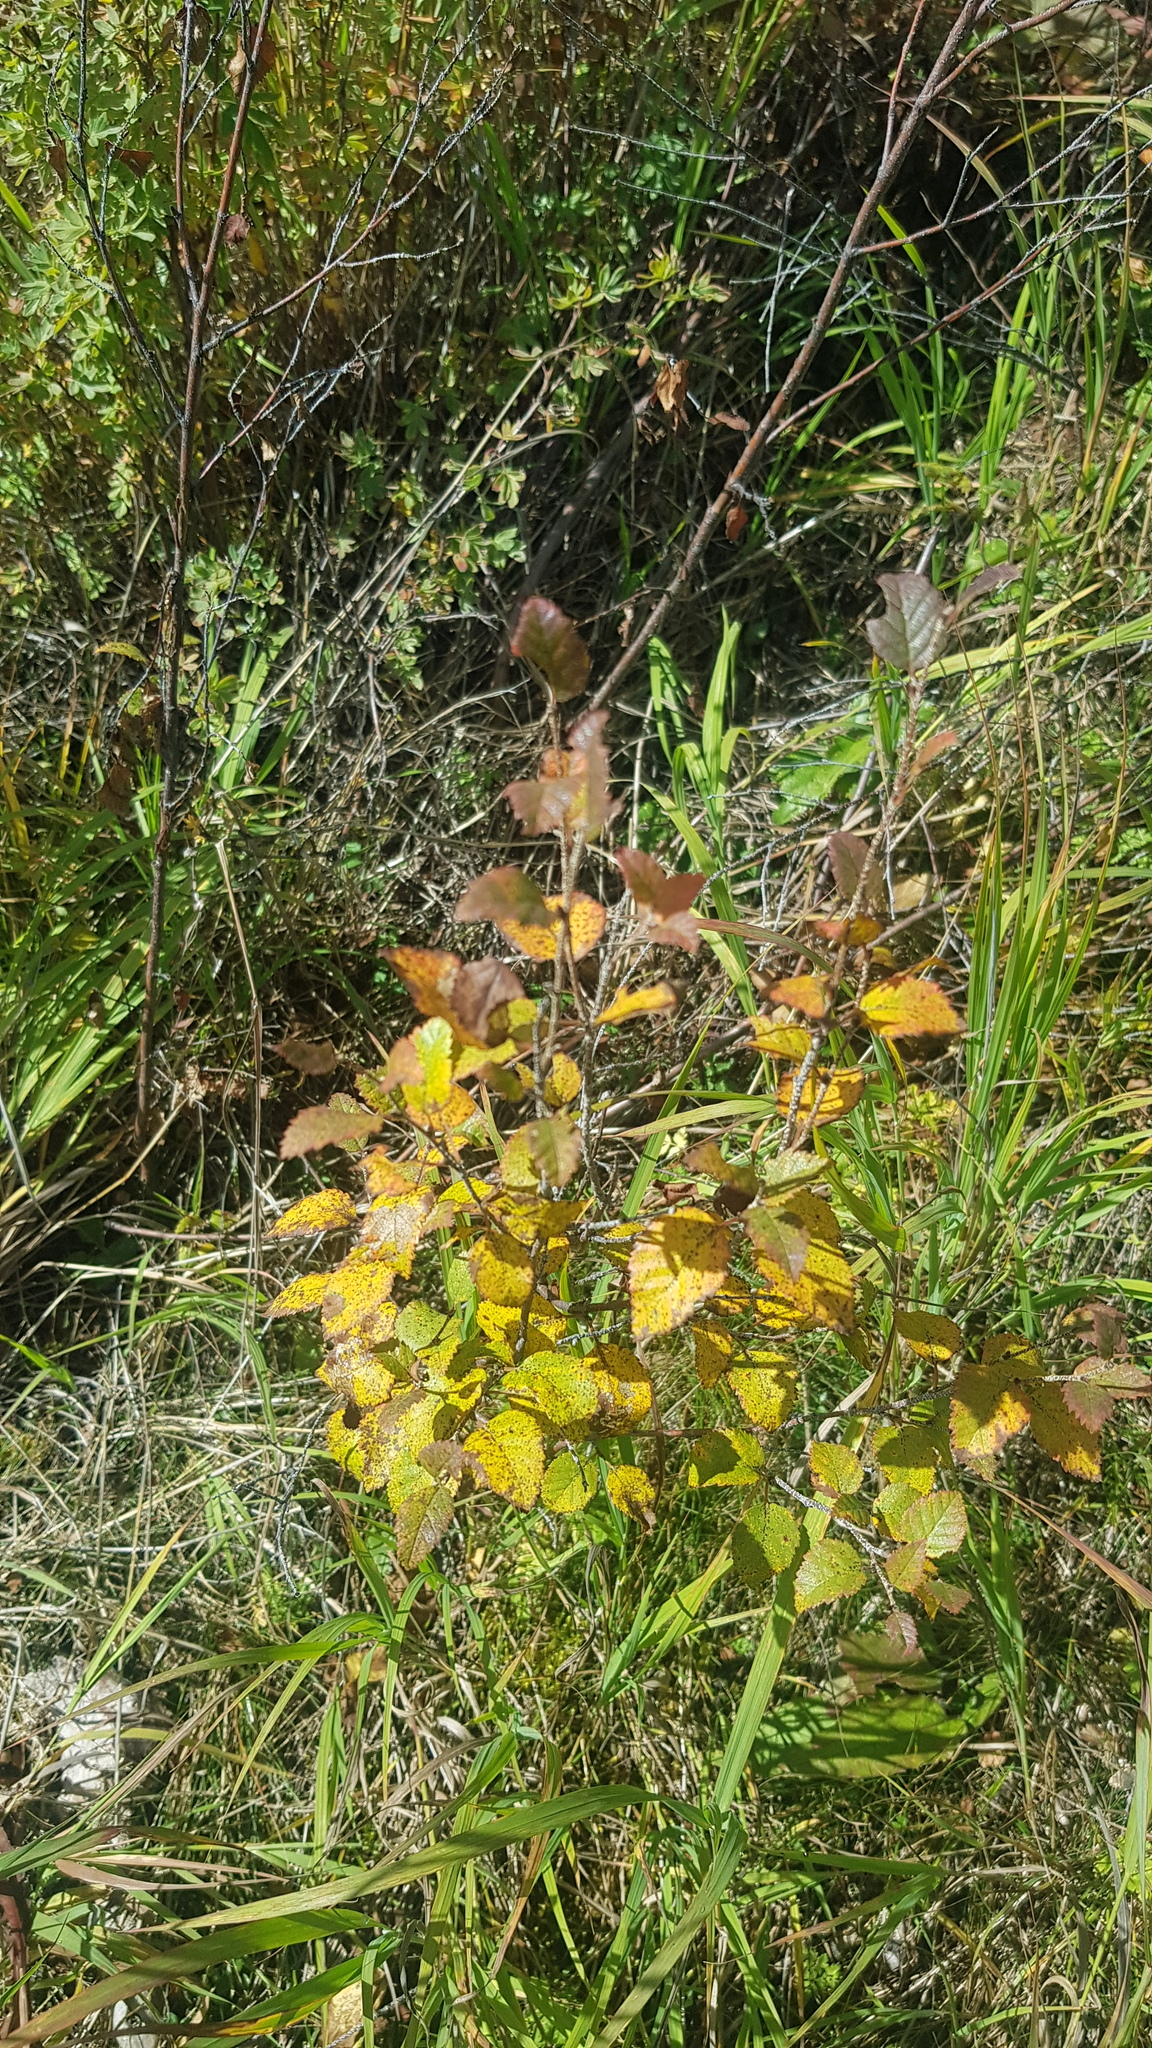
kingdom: Plantae
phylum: Tracheophyta
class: Magnoliopsida
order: Fagales
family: Betulaceae
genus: Betula
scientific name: Betula fruticosa
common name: Japanese bog birch
